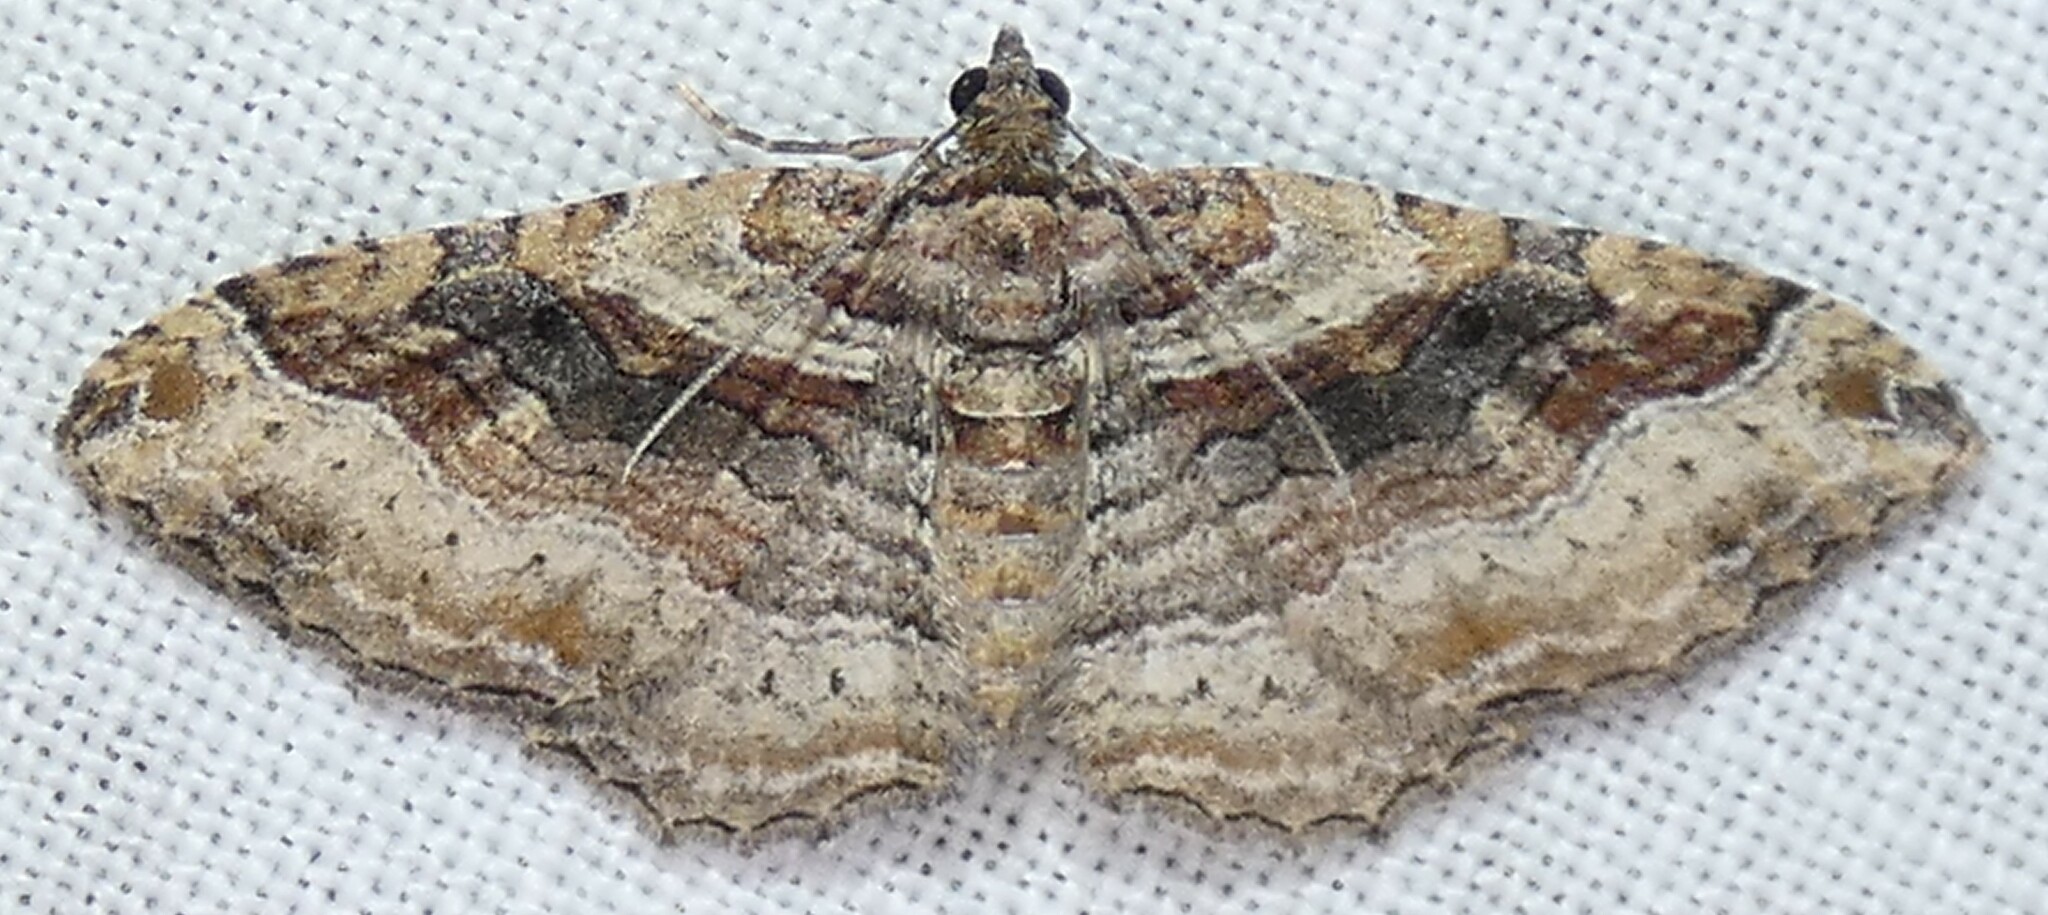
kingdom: Animalia
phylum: Arthropoda
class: Insecta
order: Lepidoptera
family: Geometridae
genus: Costaconvexa
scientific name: Costaconvexa centrostrigaria
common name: Bent-line carpet
